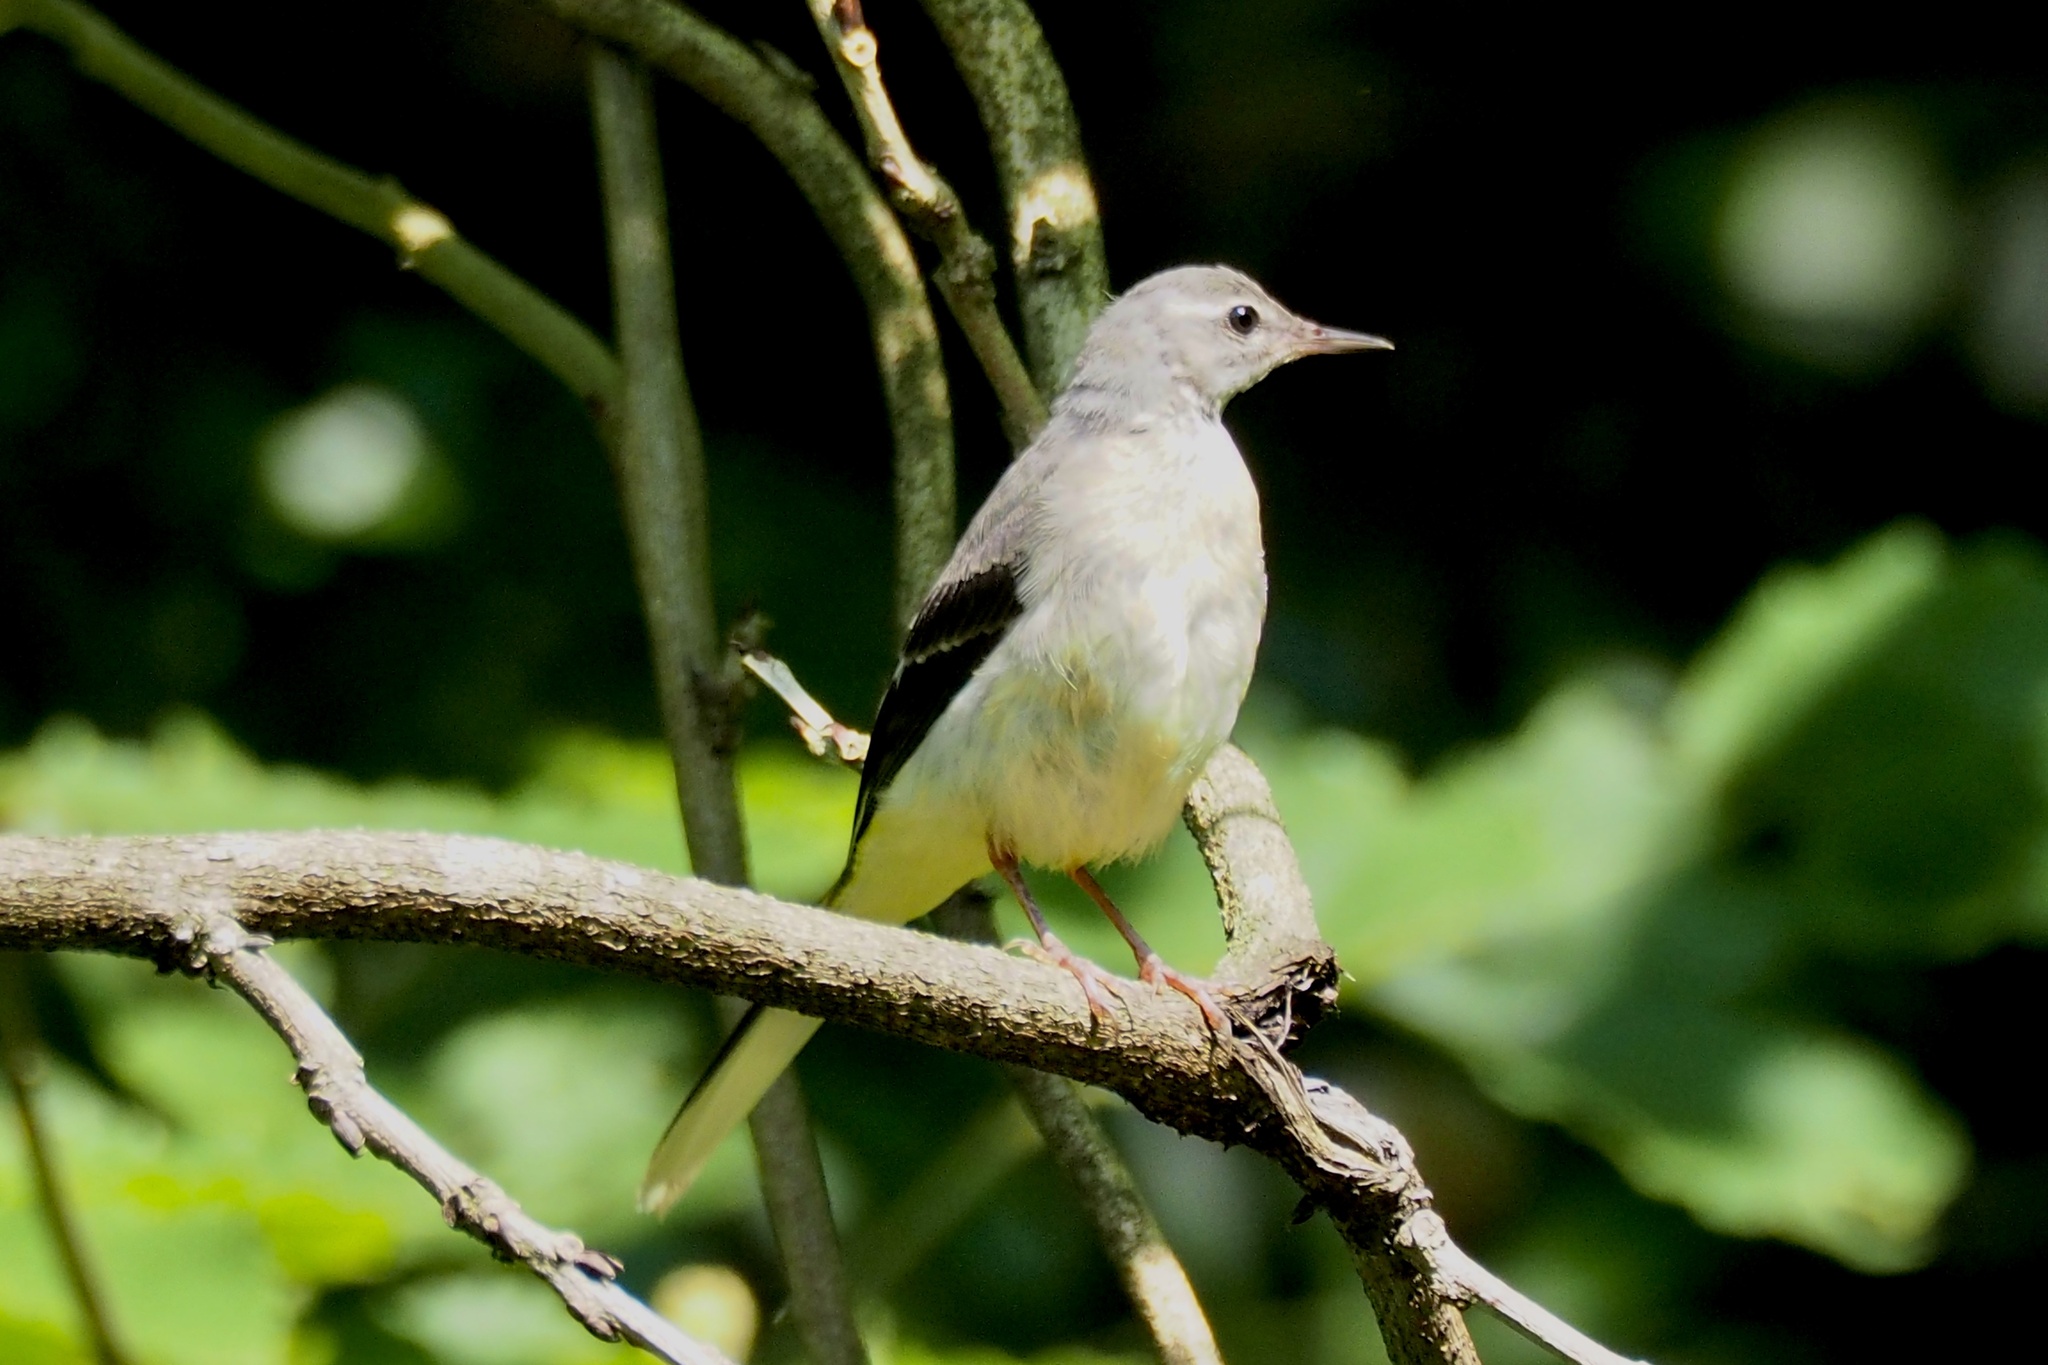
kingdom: Animalia
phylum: Chordata
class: Aves
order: Passeriformes
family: Motacillidae
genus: Motacilla
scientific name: Motacilla cinerea
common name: Grey wagtail
